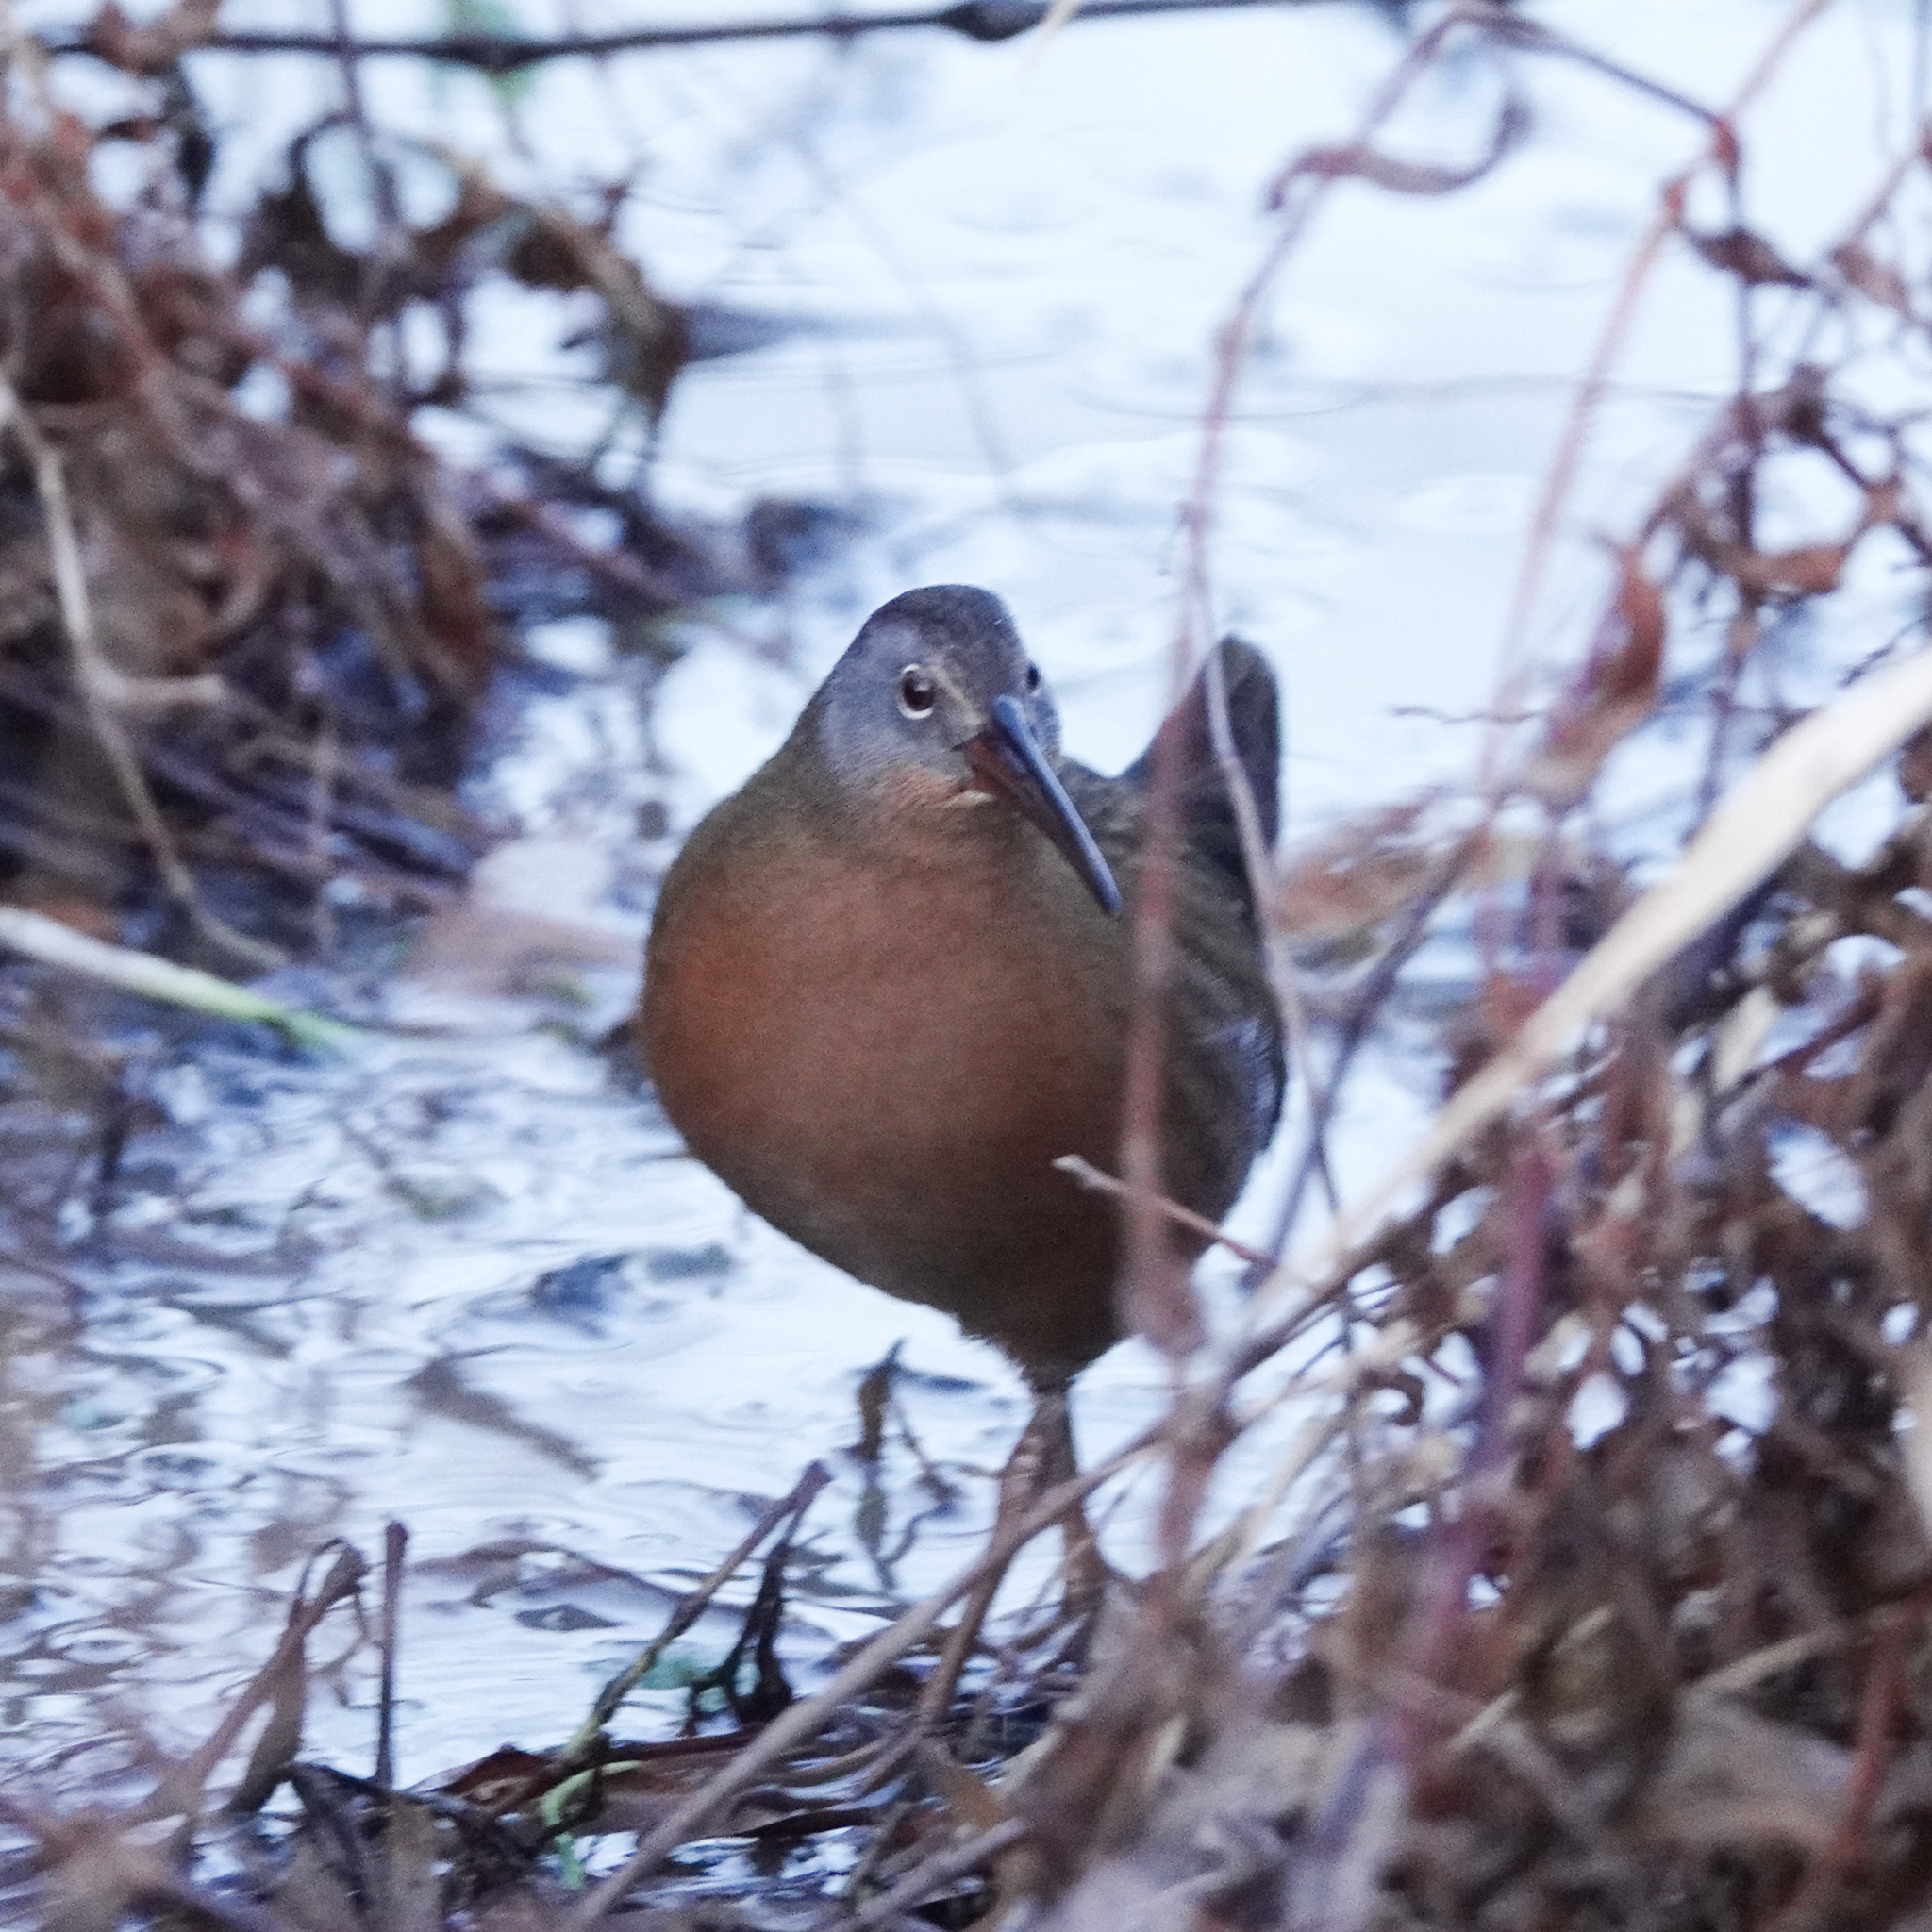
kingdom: Animalia
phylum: Chordata
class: Aves
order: Gruiformes
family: Rallidae
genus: Rallus
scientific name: Rallus limicola
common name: Virginia rail
